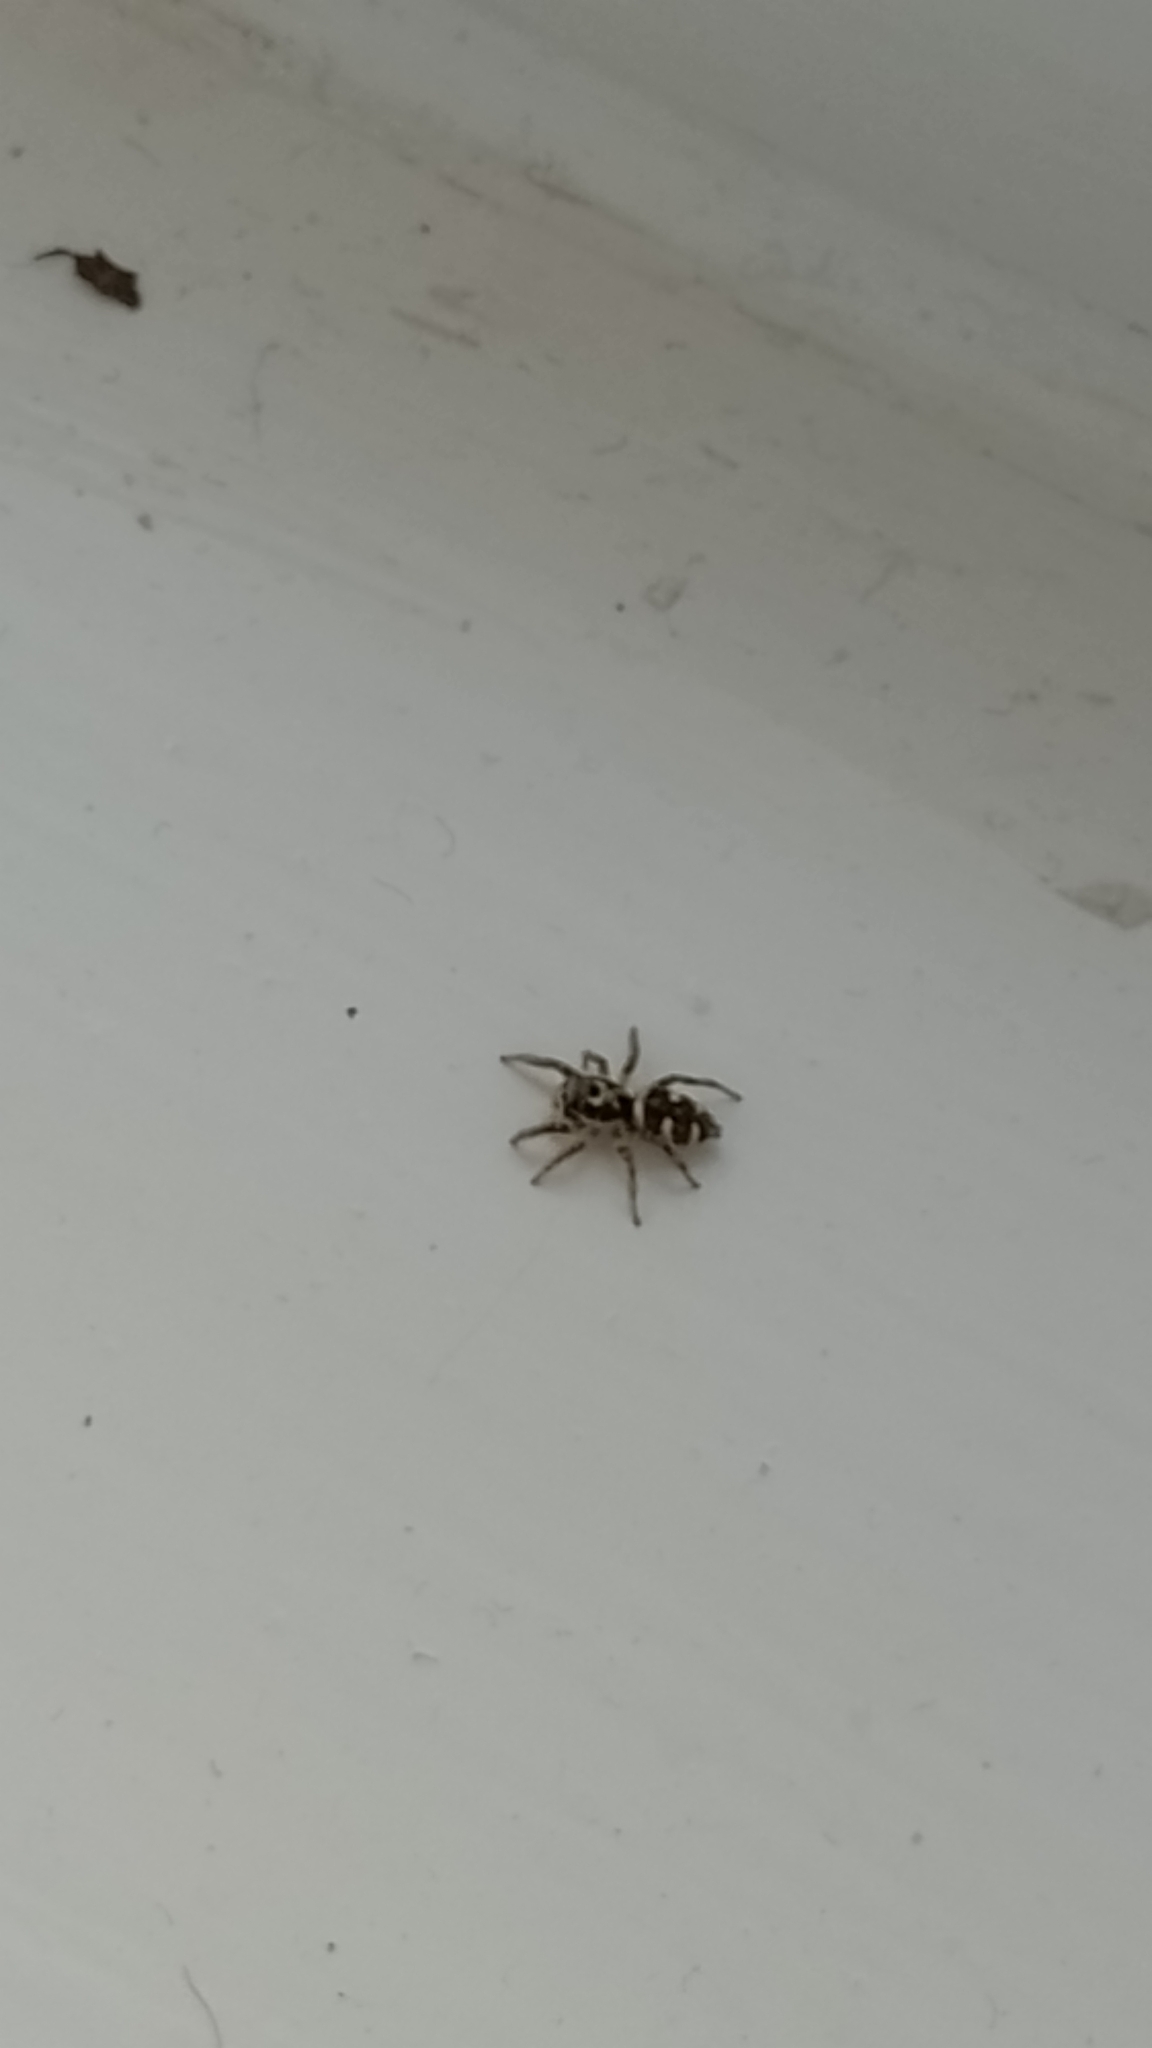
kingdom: Animalia
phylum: Arthropoda
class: Arachnida
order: Araneae
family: Salticidae
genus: Salticus
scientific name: Salticus scenicus
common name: Zebra jumper
